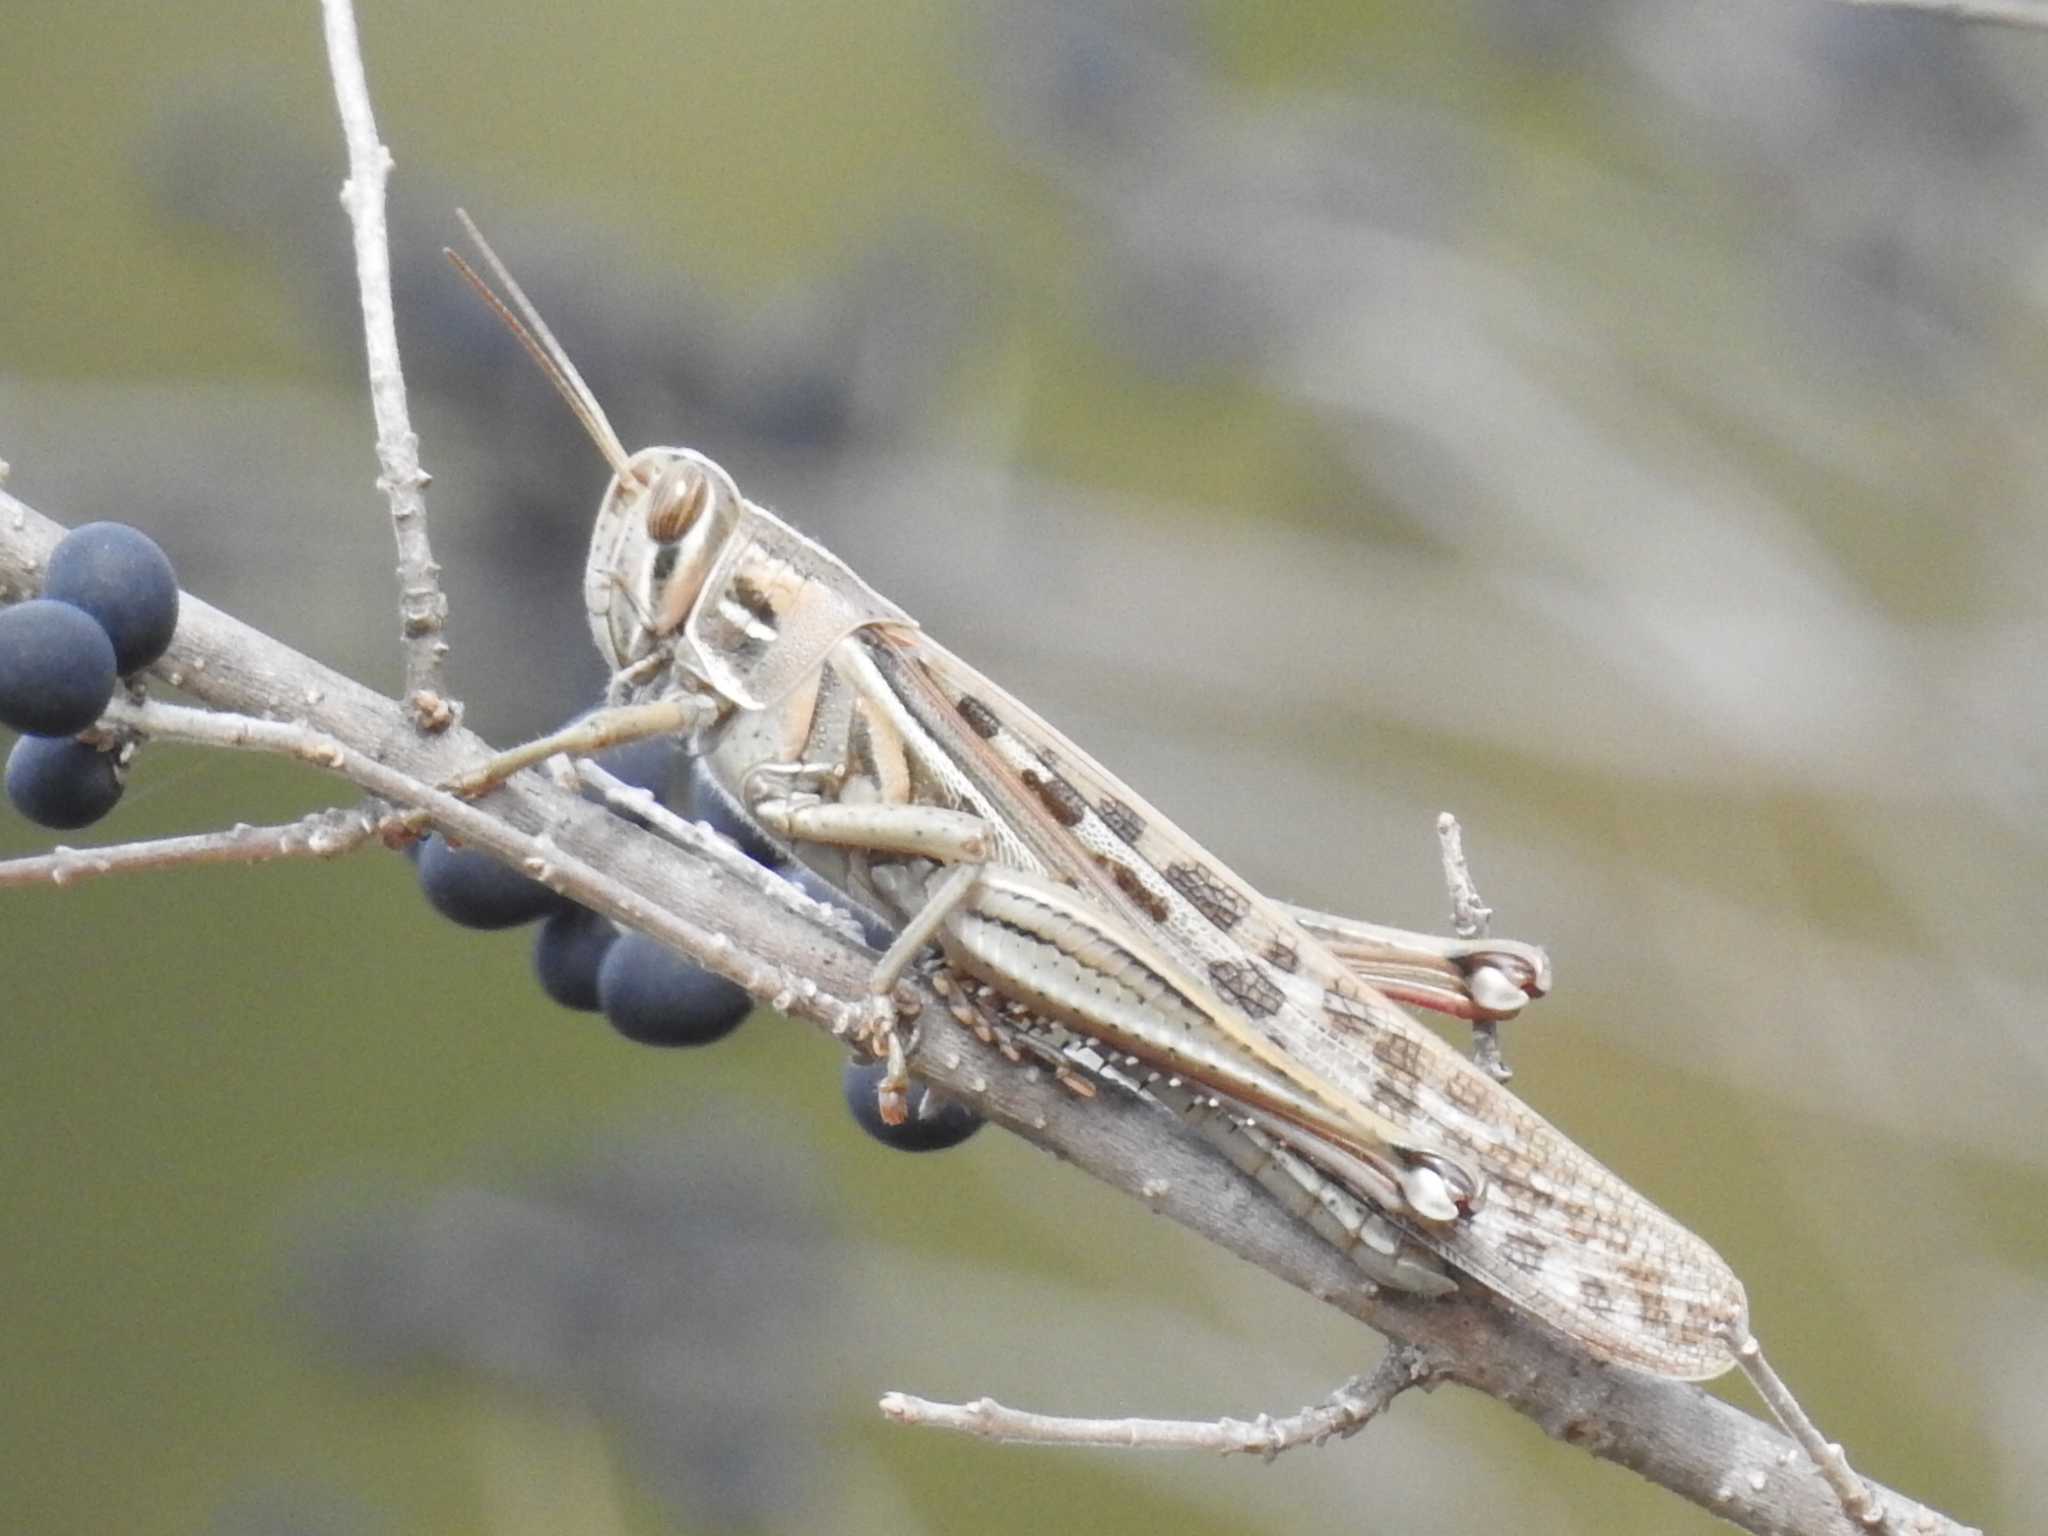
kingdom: Animalia
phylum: Arthropoda
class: Insecta
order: Orthoptera
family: Acrididae
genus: Schistocerca
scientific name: Schistocerca americana
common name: American bird locust
